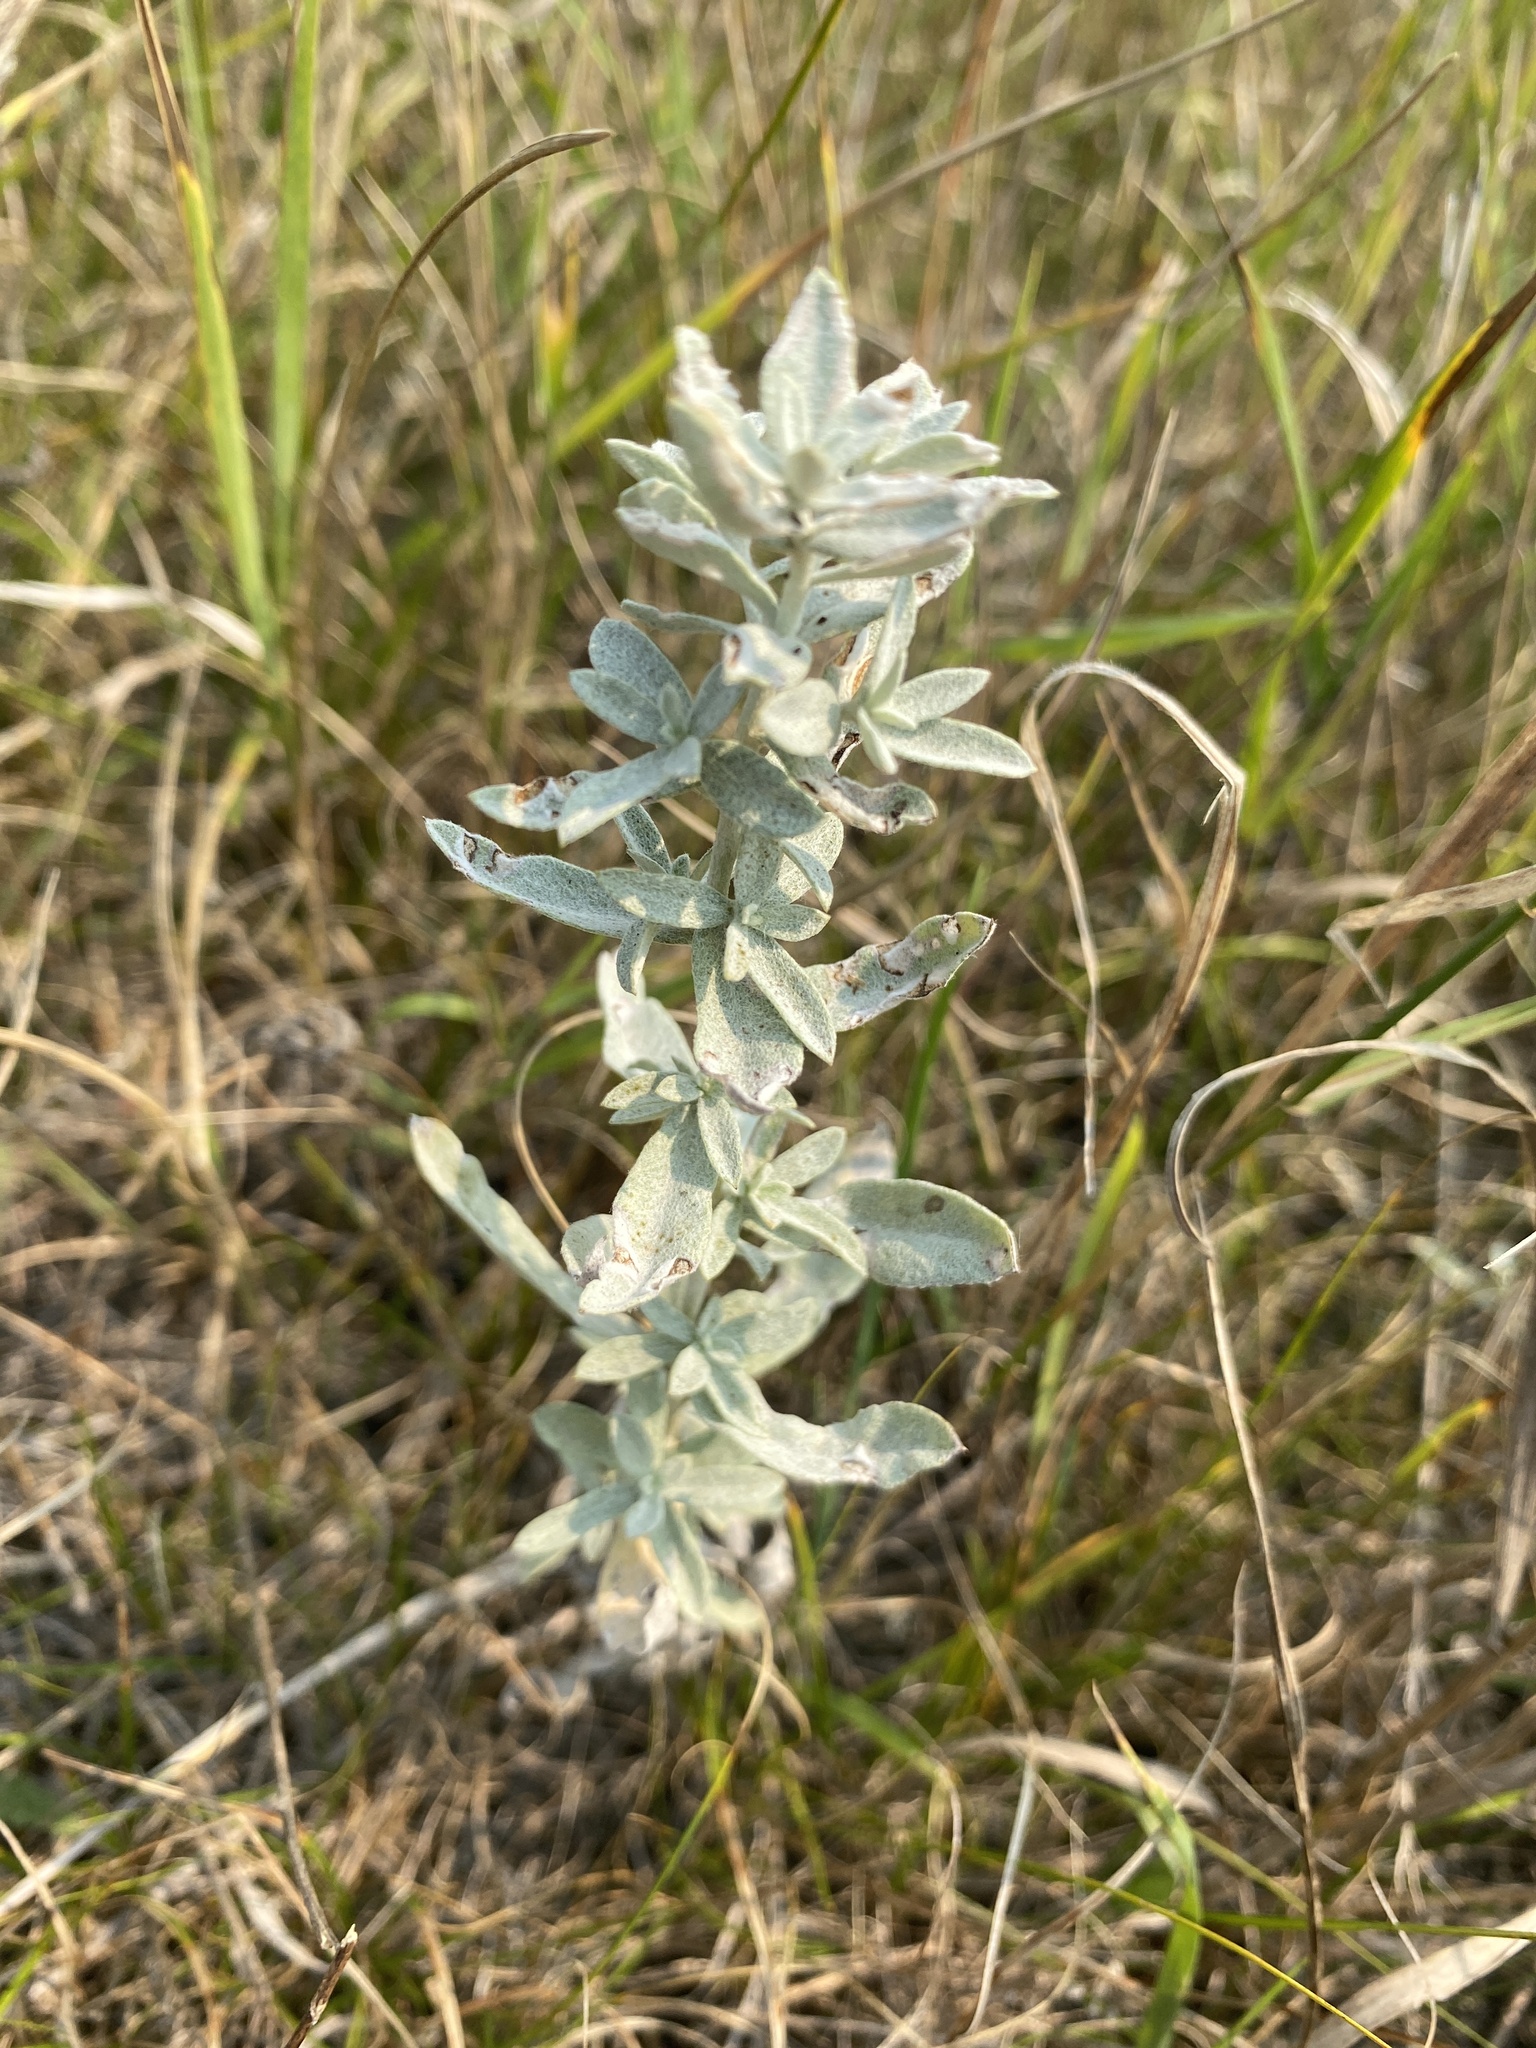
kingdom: Plantae
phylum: Tracheophyta
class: Magnoliopsida
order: Asterales
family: Asteraceae
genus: Artemisia
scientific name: Artemisia ludoviciana
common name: Western mugwort
